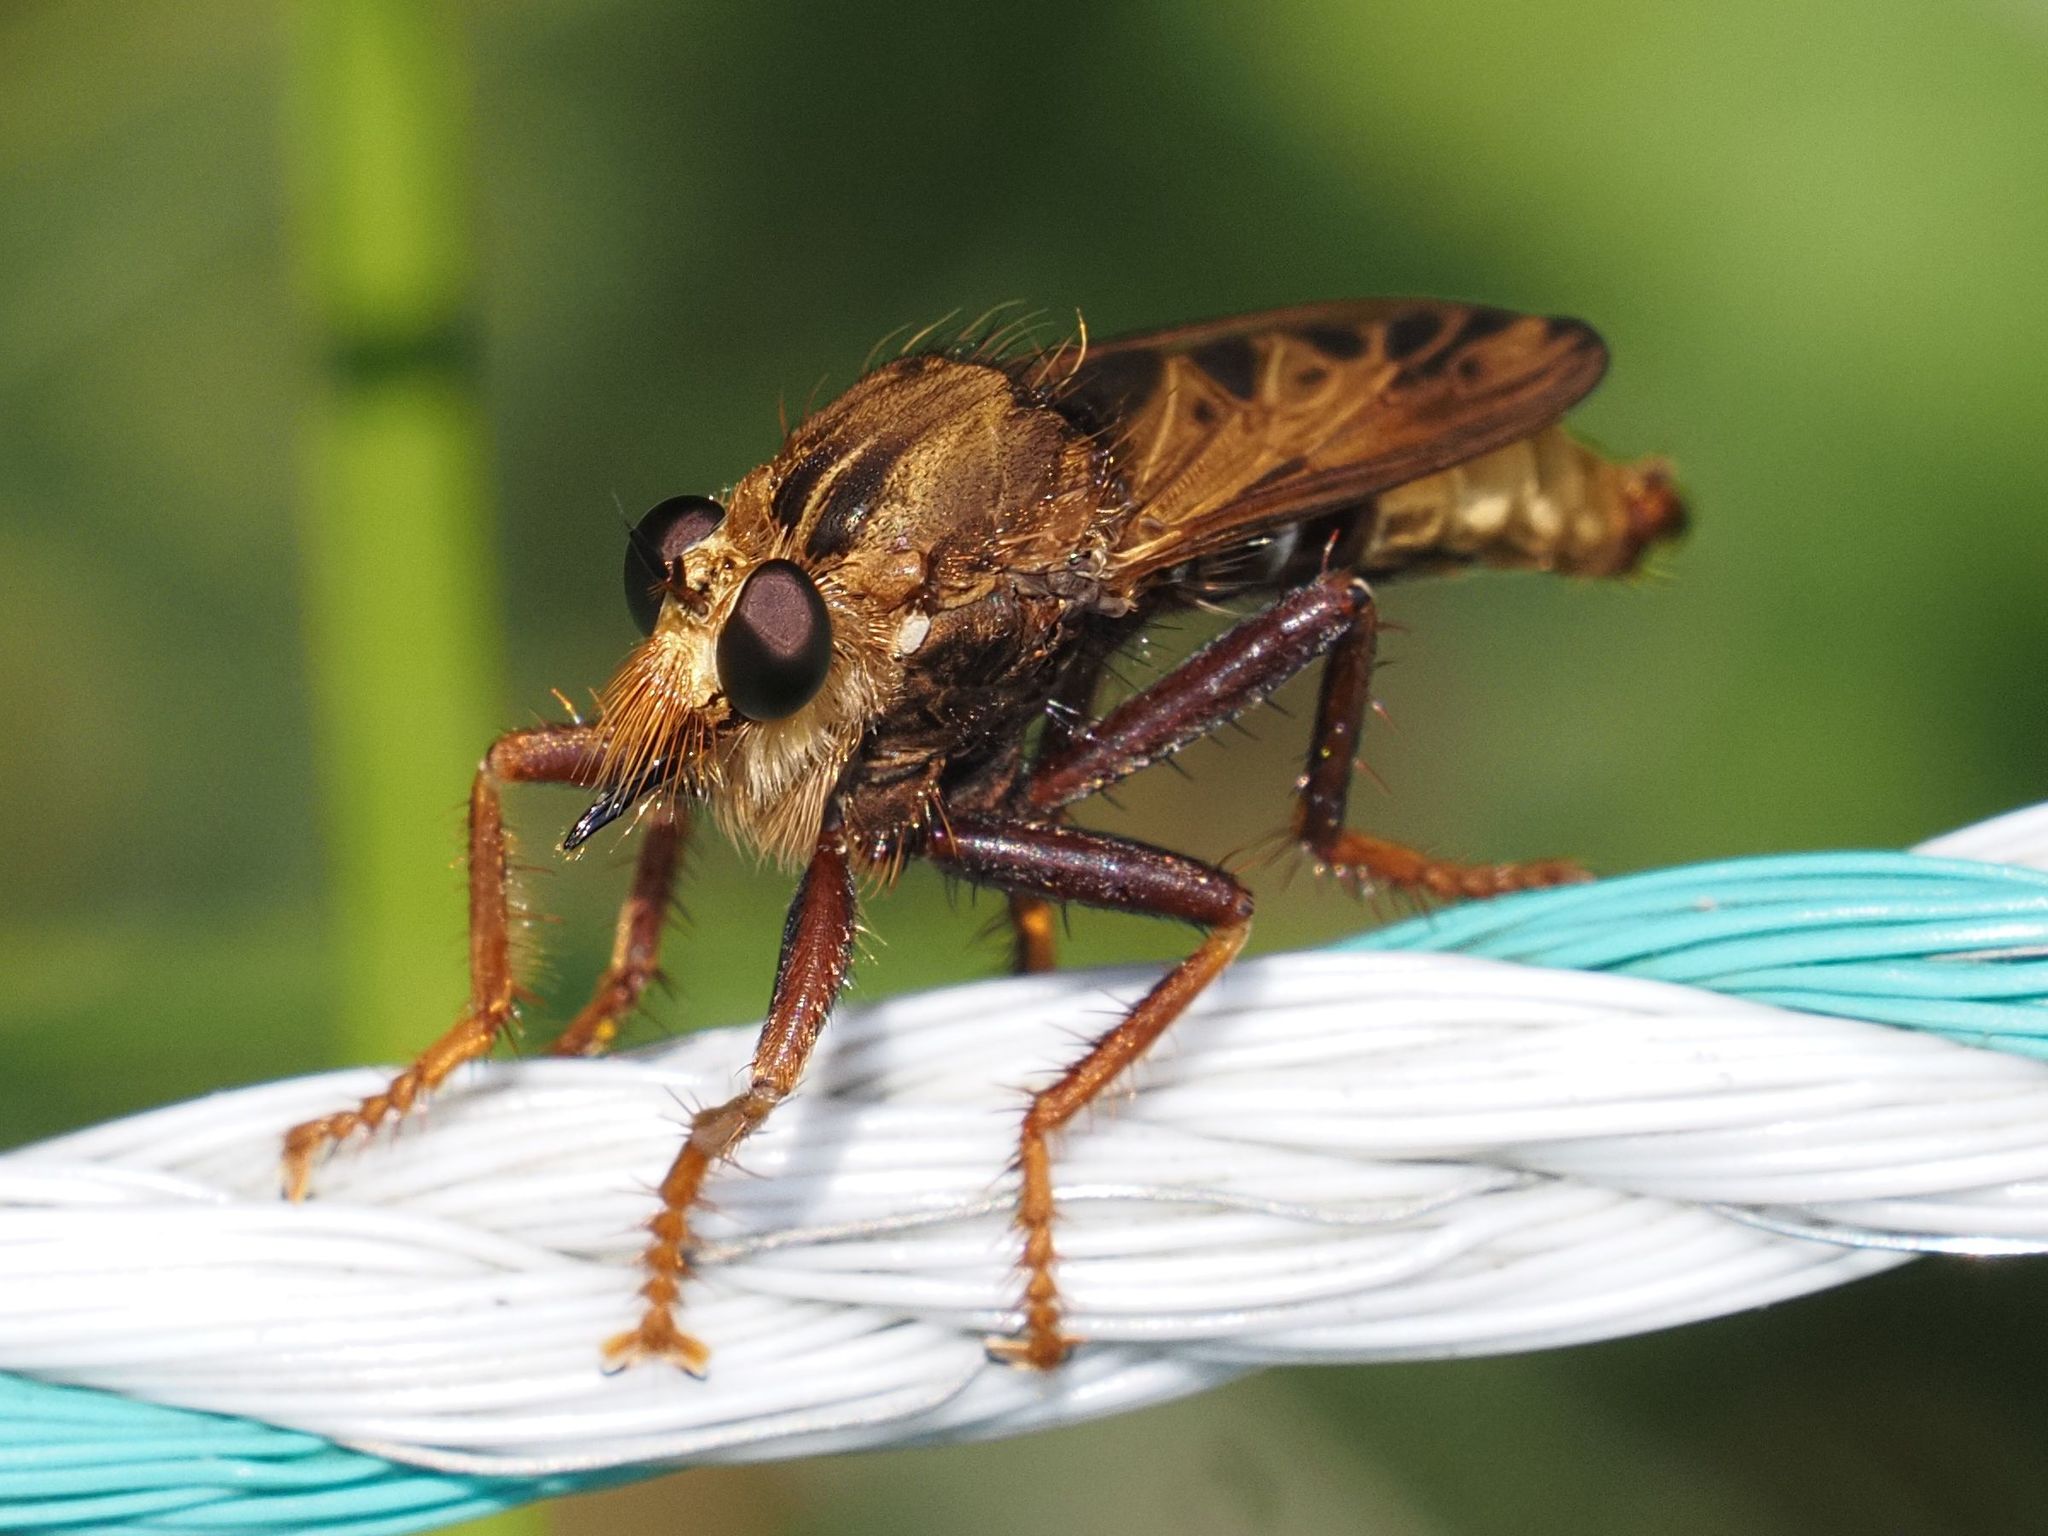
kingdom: Animalia
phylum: Arthropoda
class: Insecta
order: Diptera
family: Asilidae
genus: Asilus
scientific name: Asilus crabroniformis
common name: Hornet robberfly
